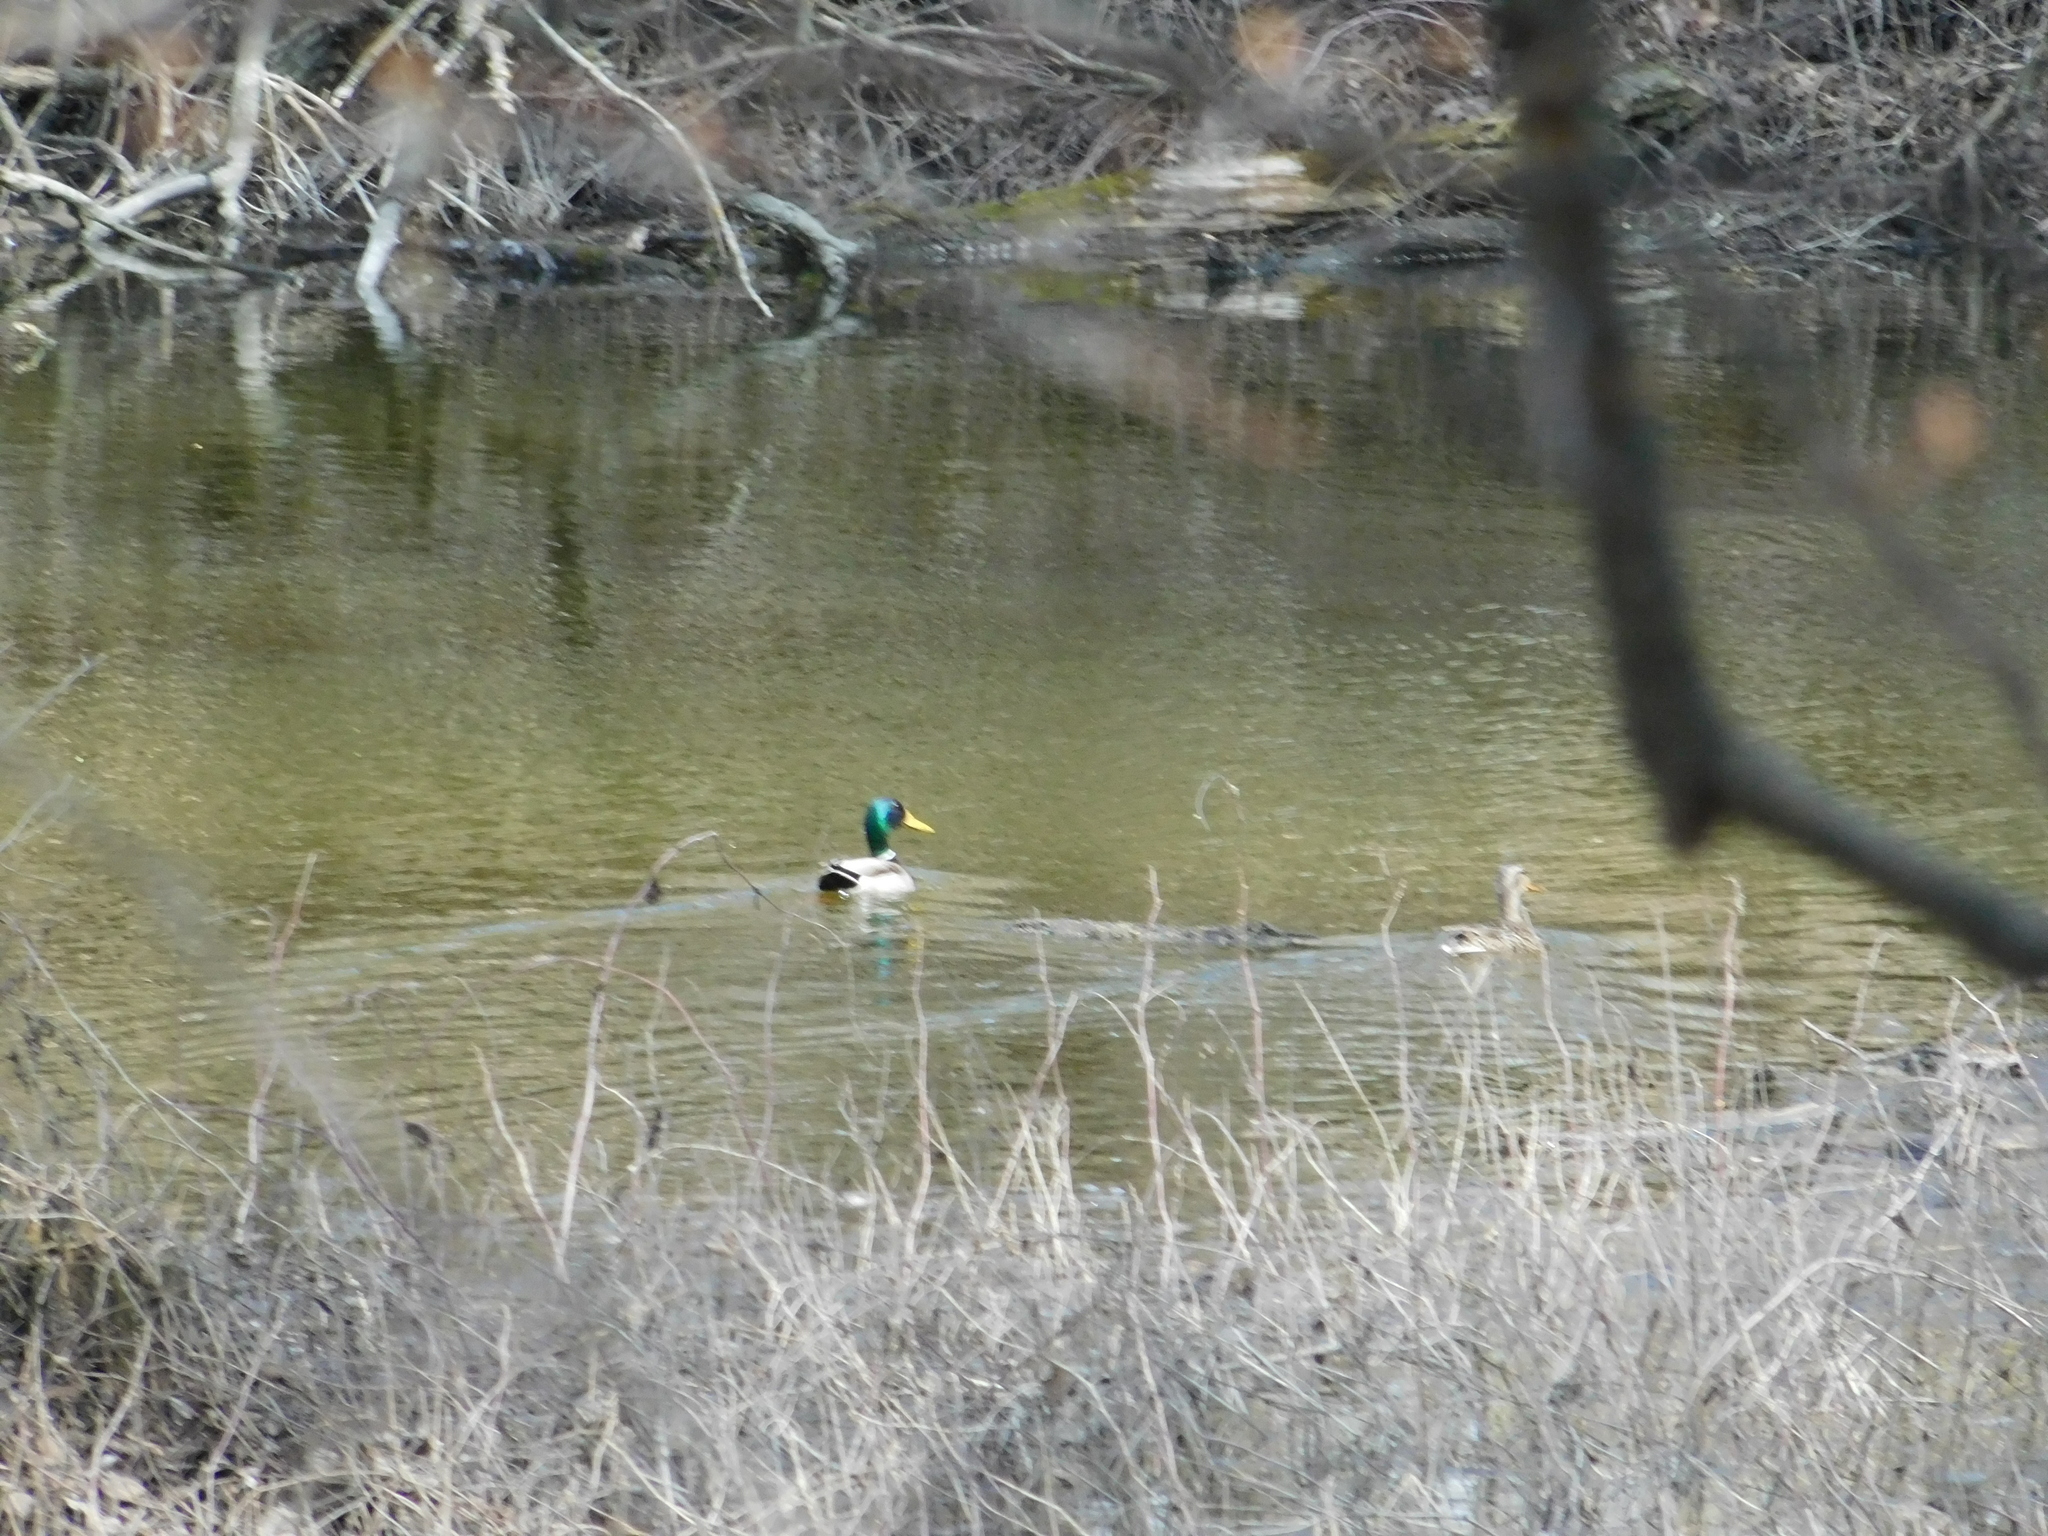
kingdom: Animalia
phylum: Chordata
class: Aves
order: Anseriformes
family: Anatidae
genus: Anas
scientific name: Anas platyrhynchos
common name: Mallard
